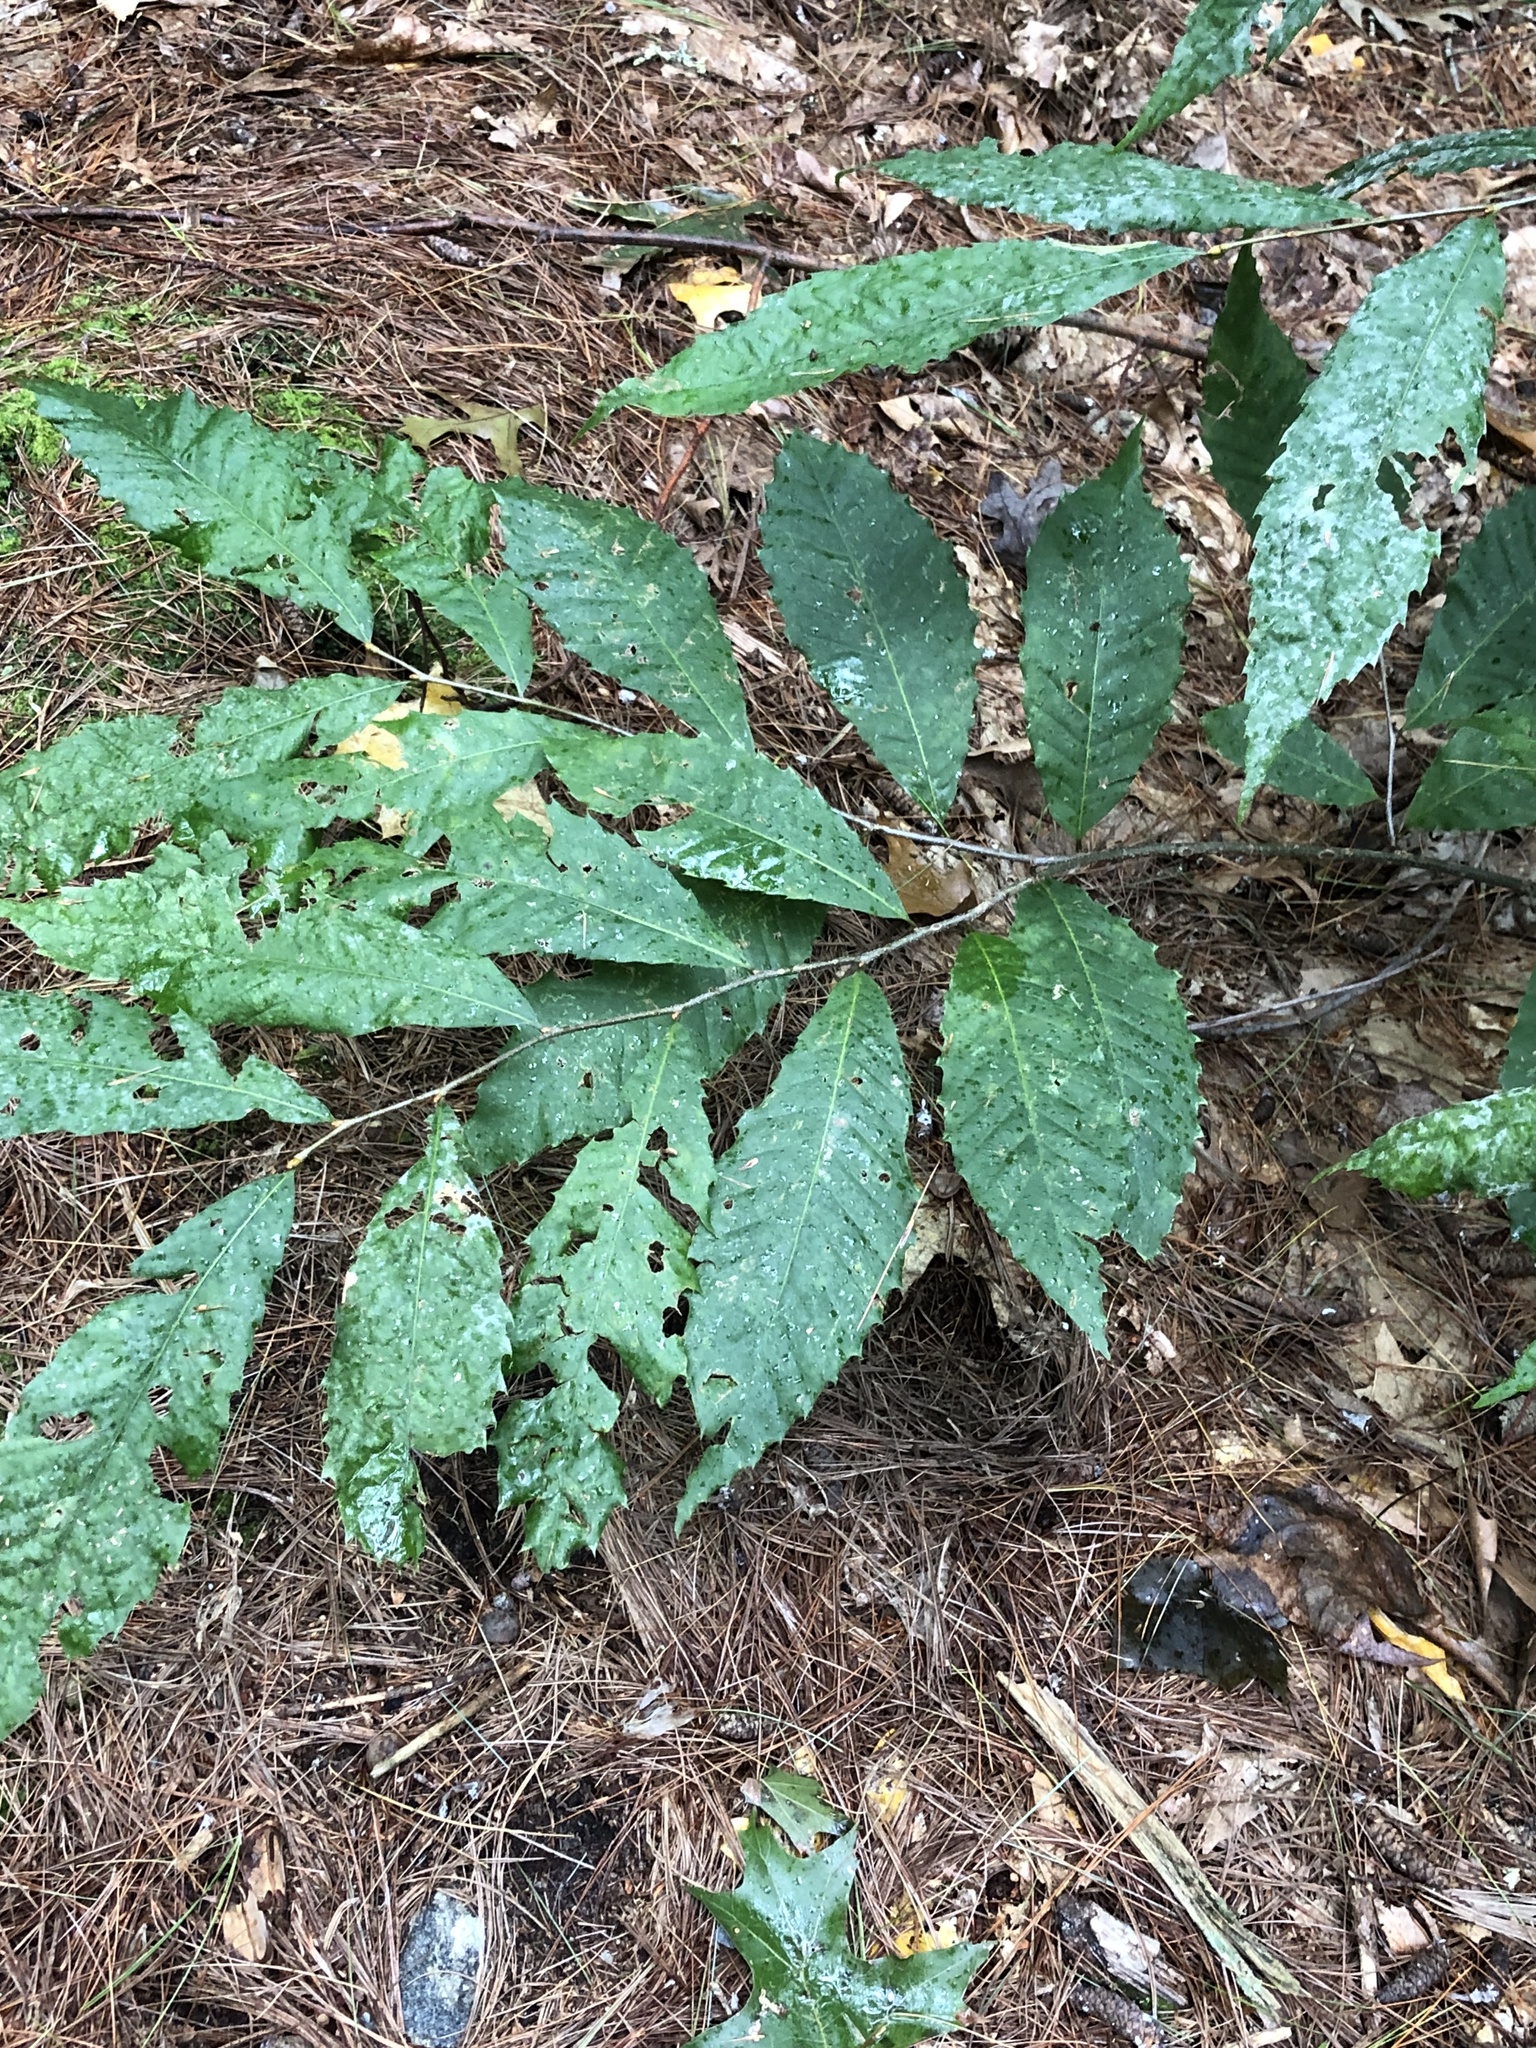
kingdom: Plantae
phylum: Tracheophyta
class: Magnoliopsida
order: Fagales
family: Fagaceae
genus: Castanea
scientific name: Castanea dentata
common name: American chestnut
